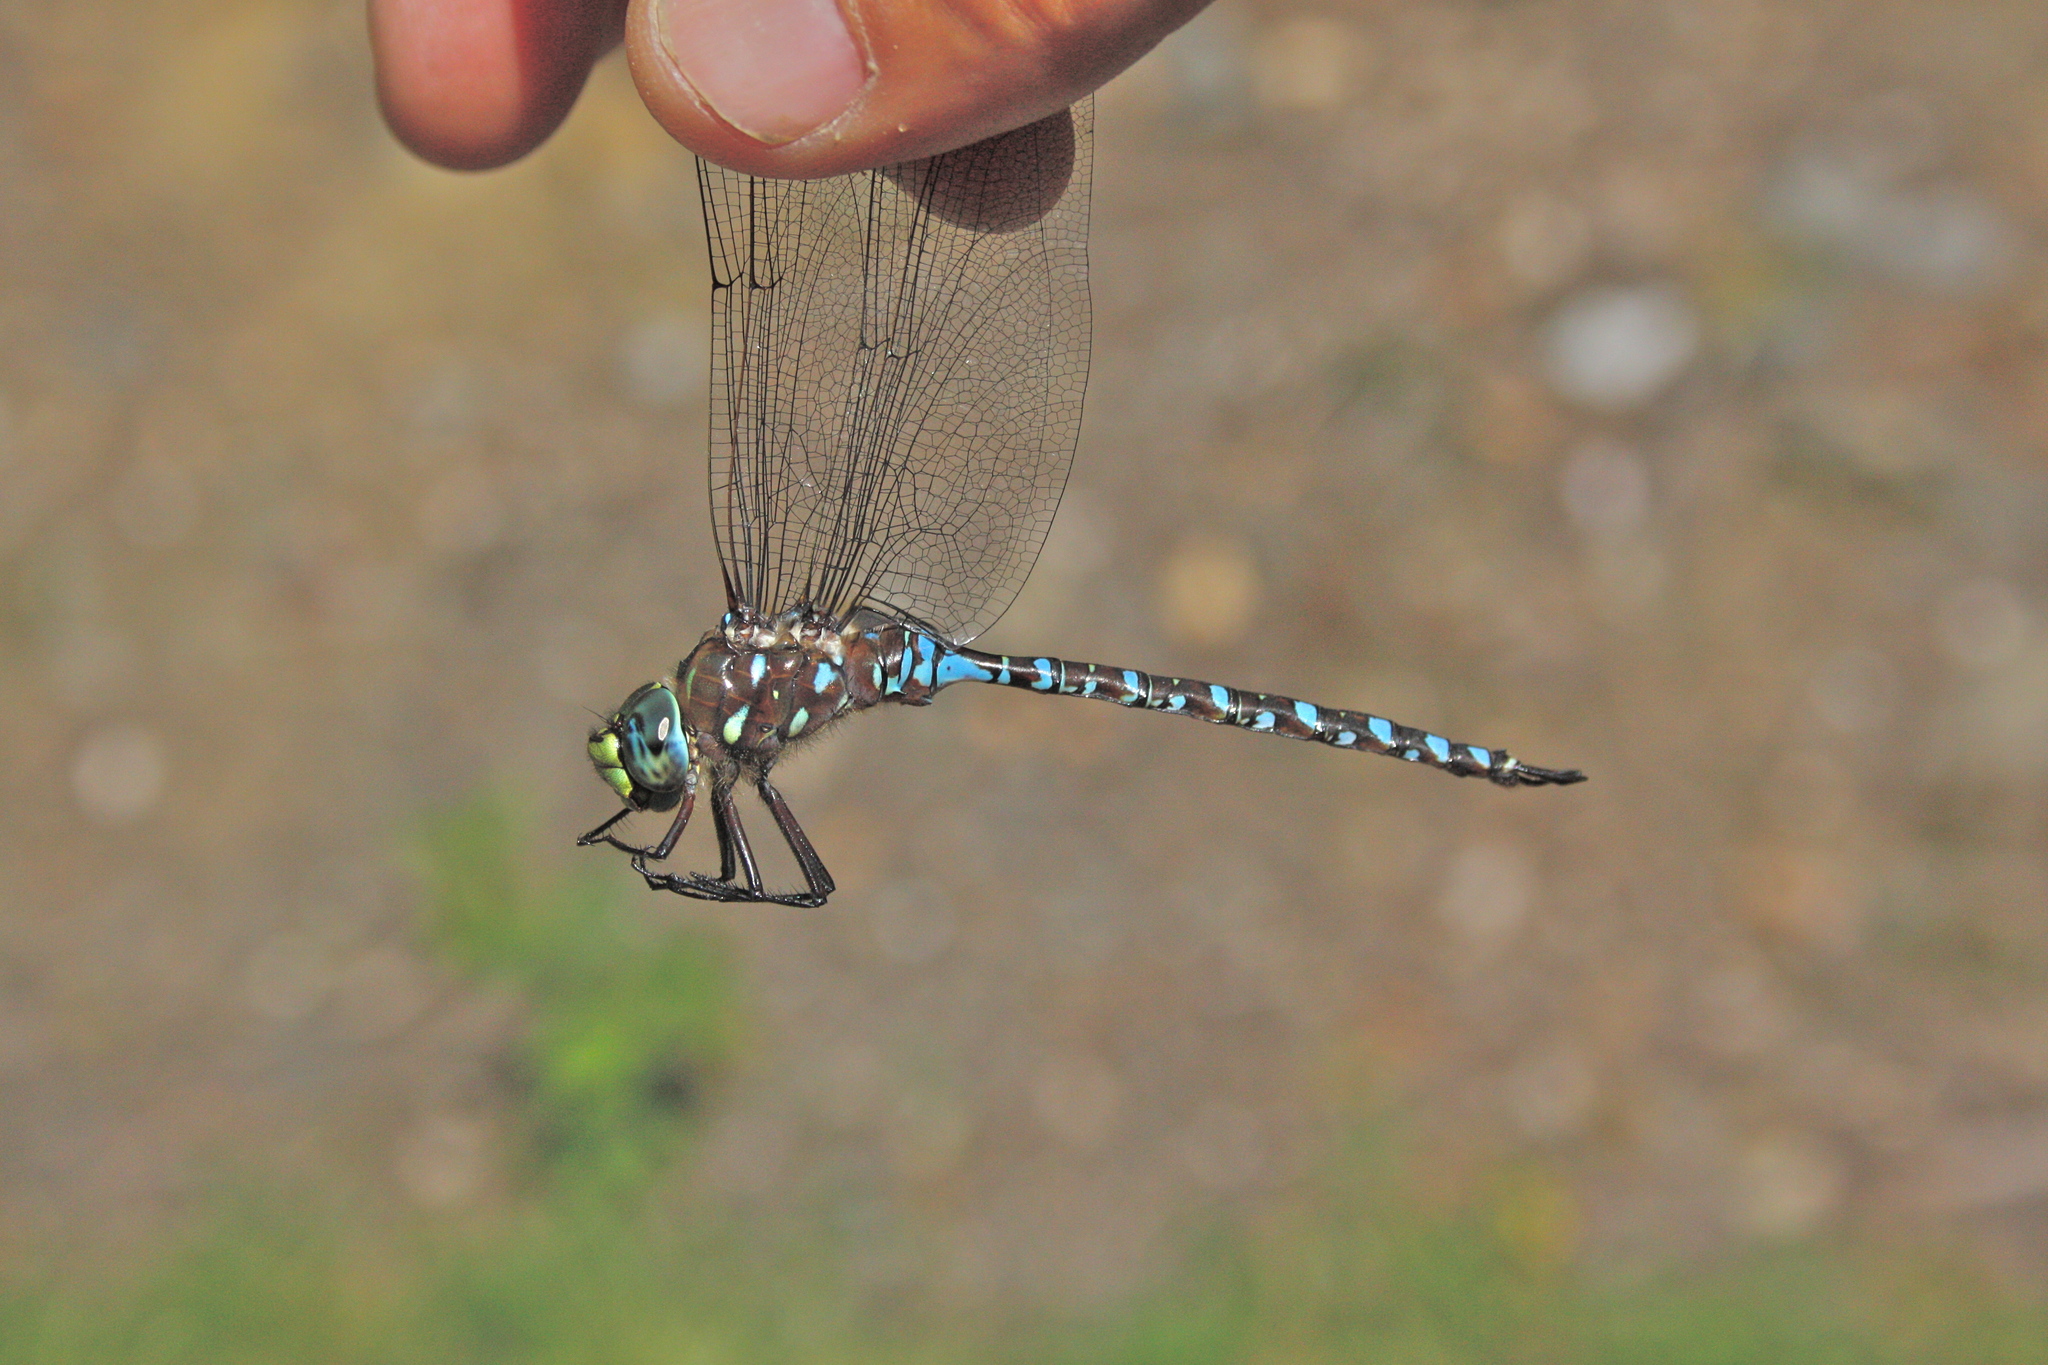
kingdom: Animalia
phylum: Arthropoda
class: Insecta
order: Odonata
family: Aeshnidae
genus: Aeshna
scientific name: Aeshna interrupta
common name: Variable darner
